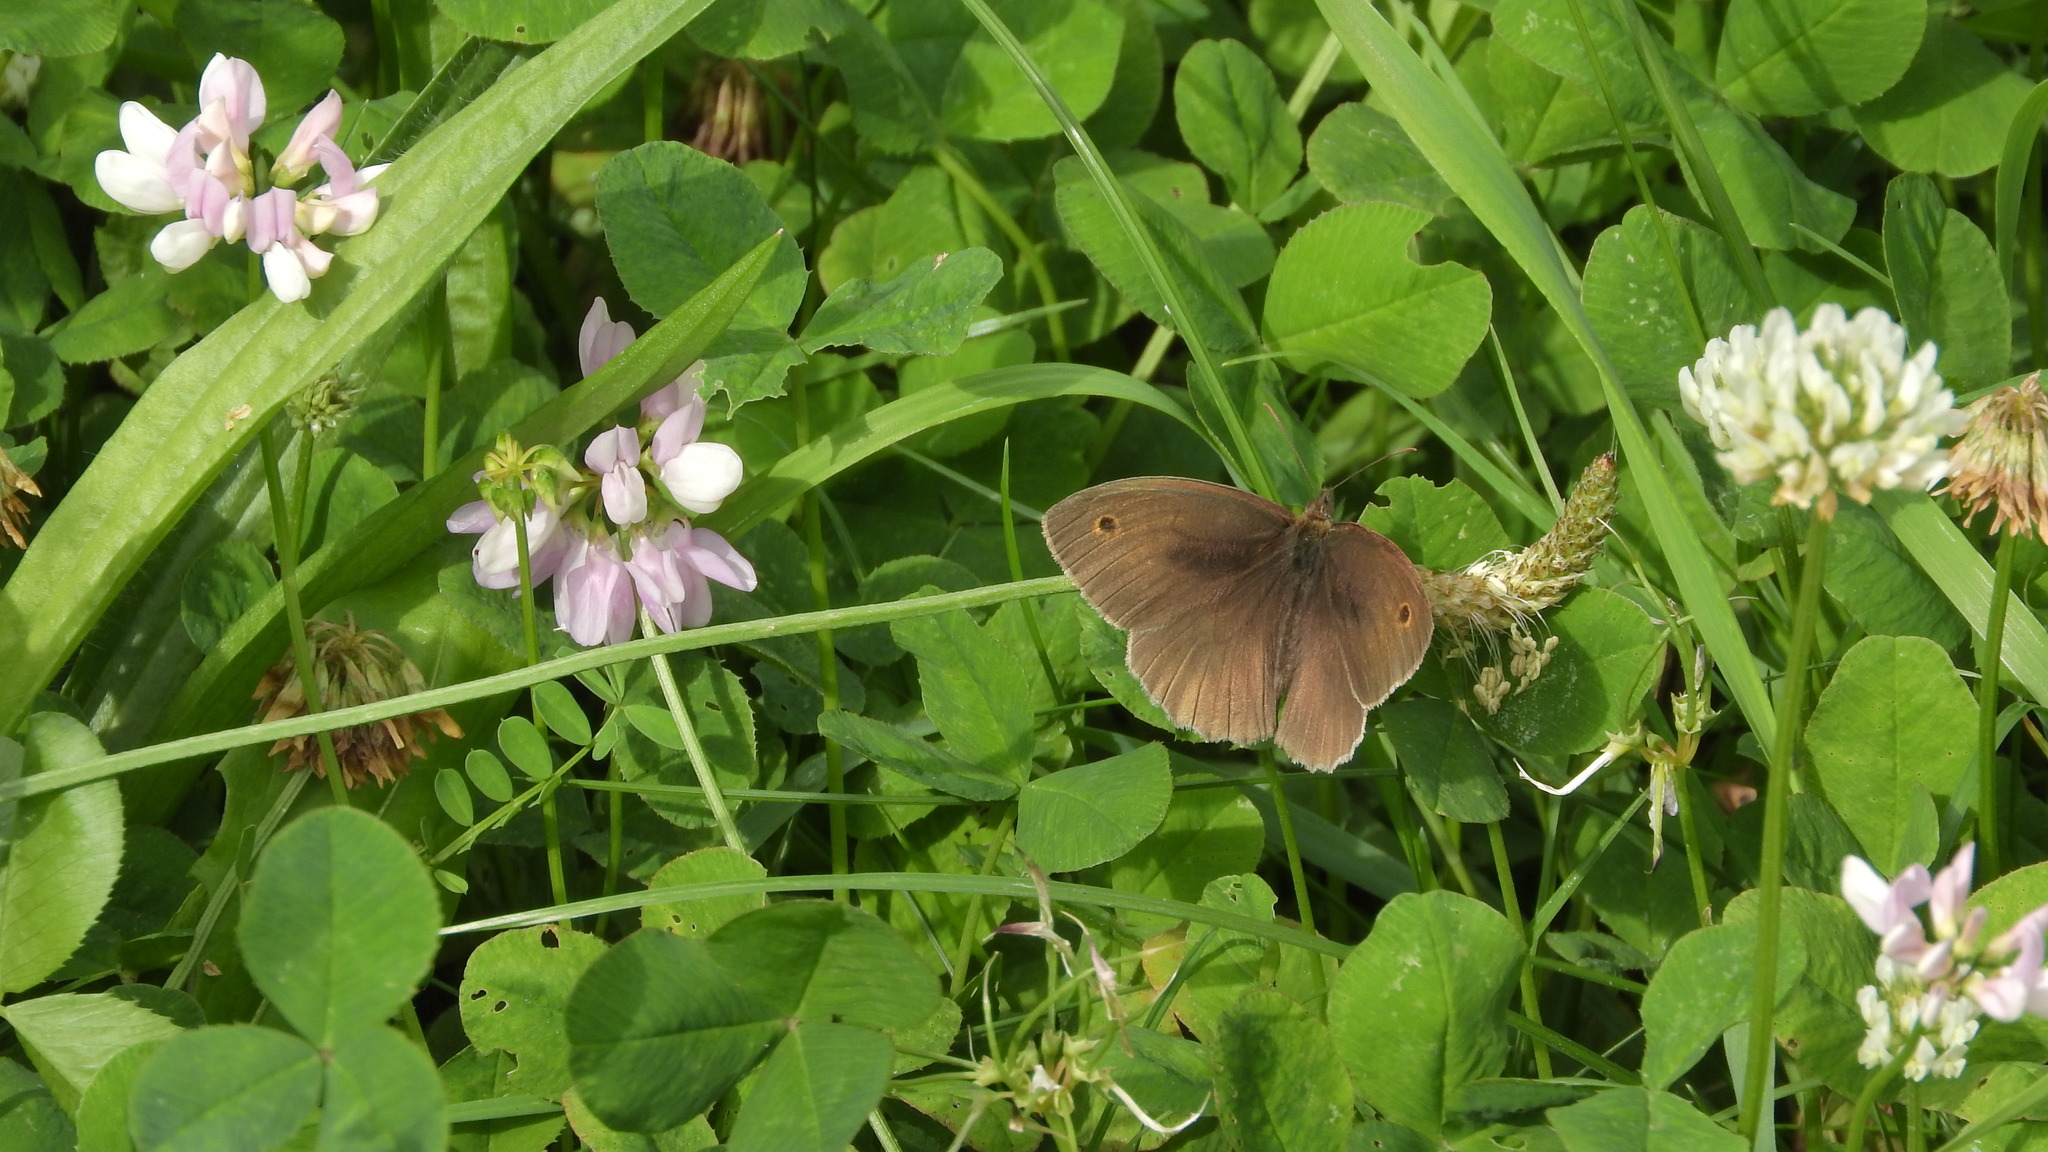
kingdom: Animalia
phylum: Arthropoda
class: Insecta
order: Lepidoptera
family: Nymphalidae
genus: Maniola
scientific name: Maniola jurtina
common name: Meadow brown
